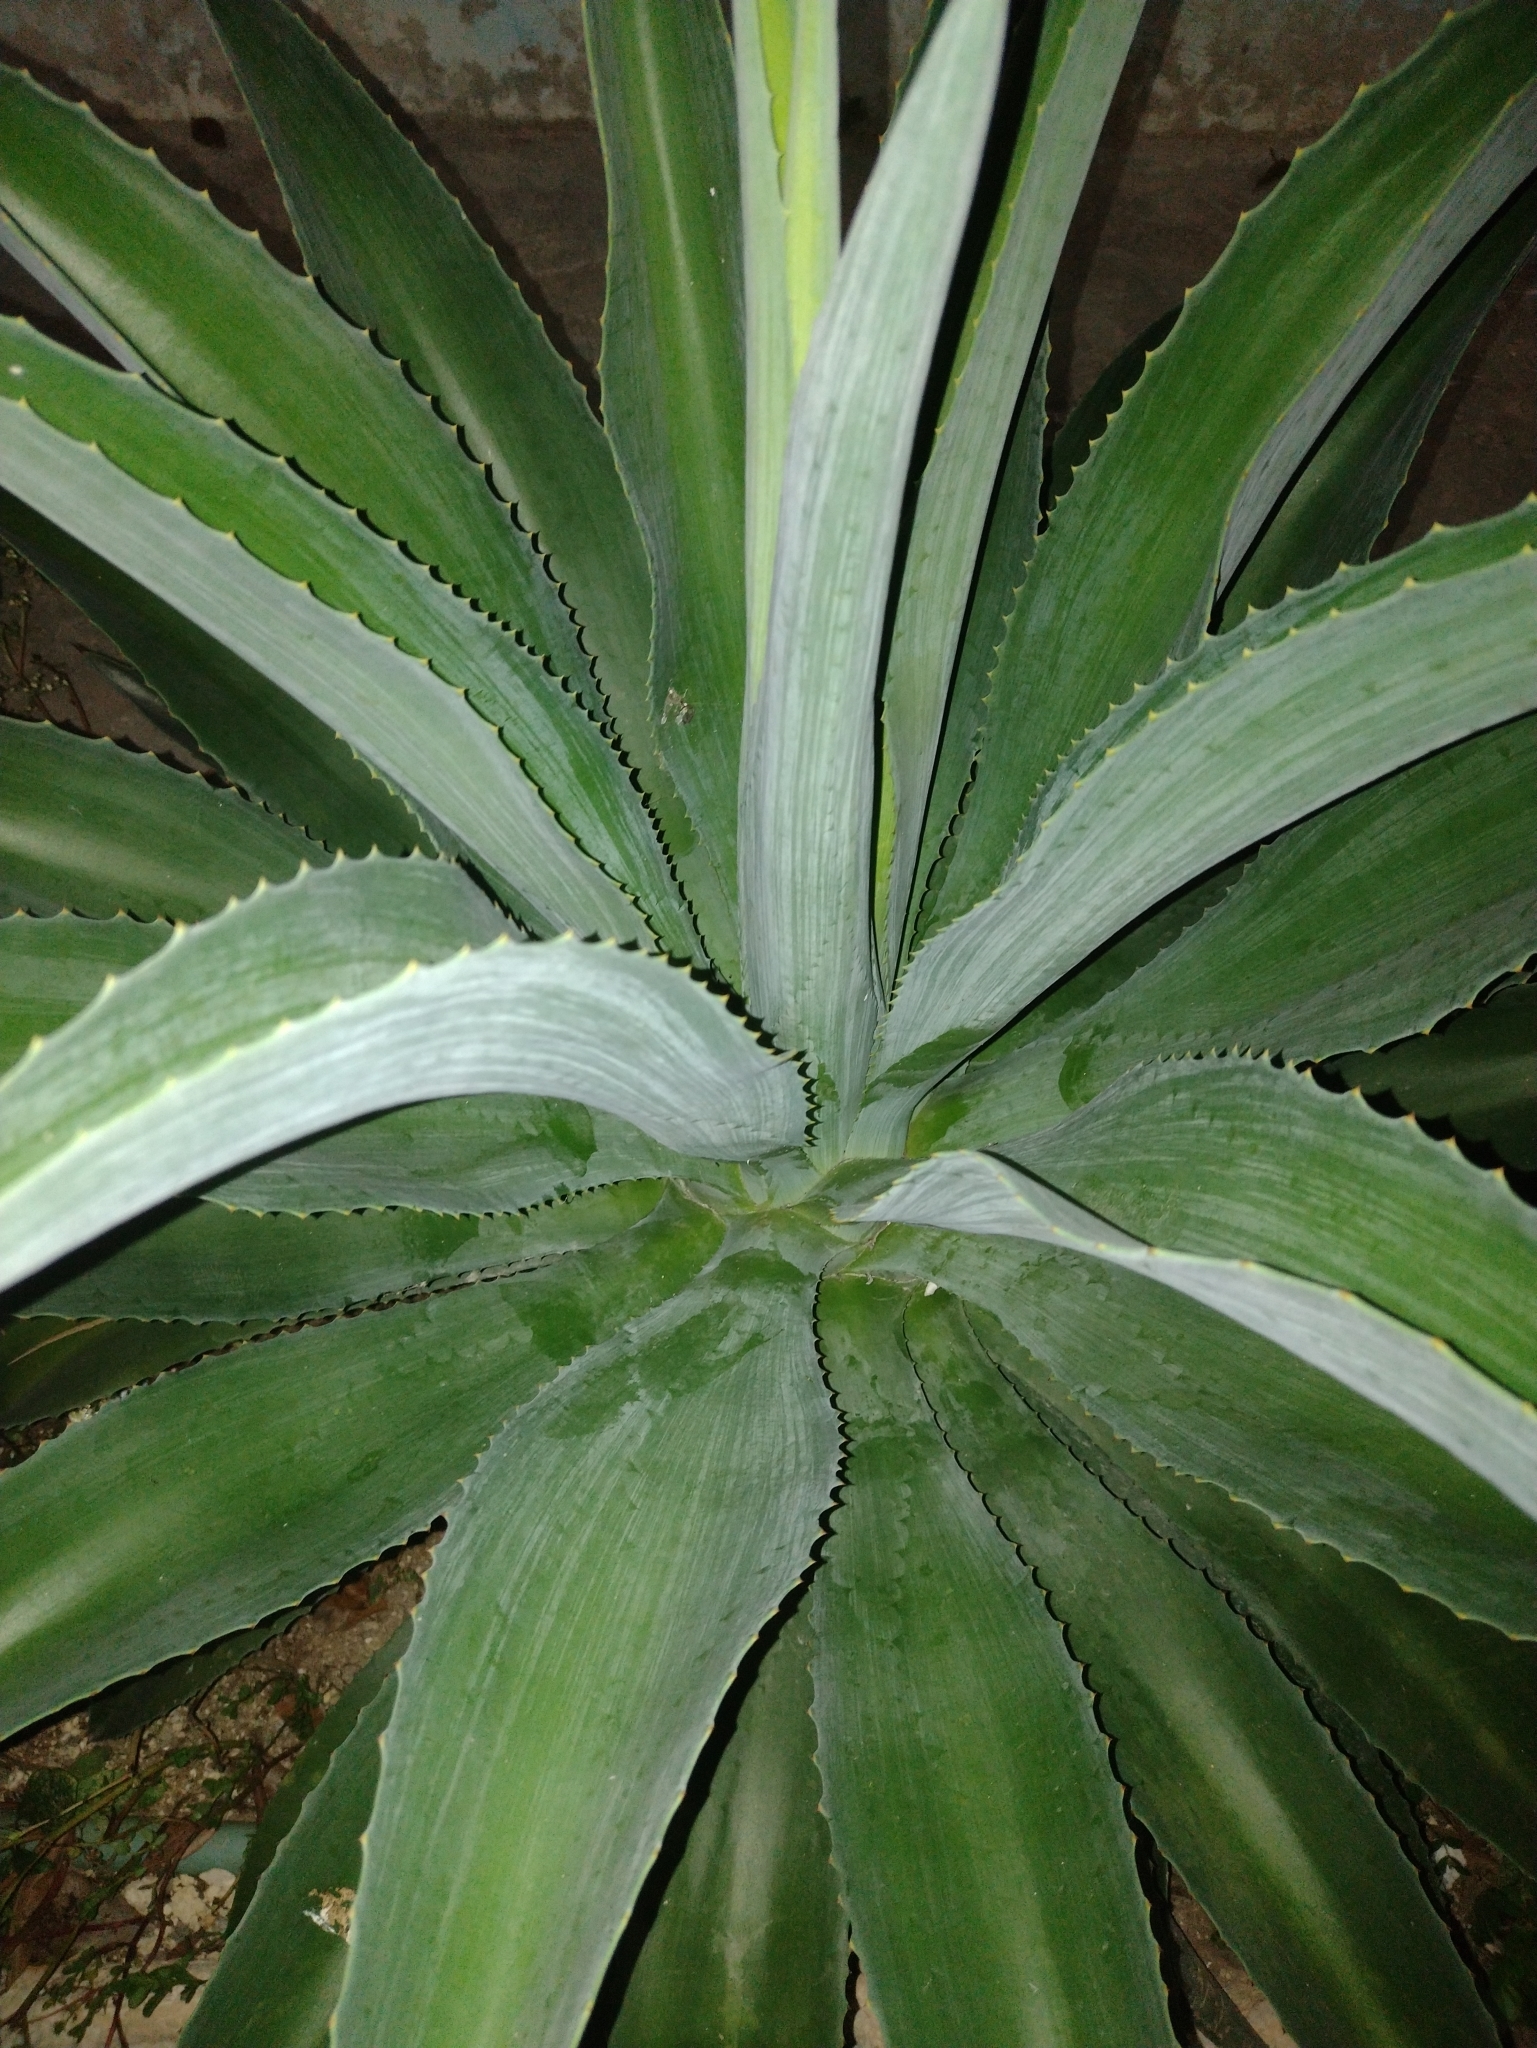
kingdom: Plantae
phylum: Tracheophyta
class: Liliopsida
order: Asparagales
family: Asparagaceae
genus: Agave
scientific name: Agave
